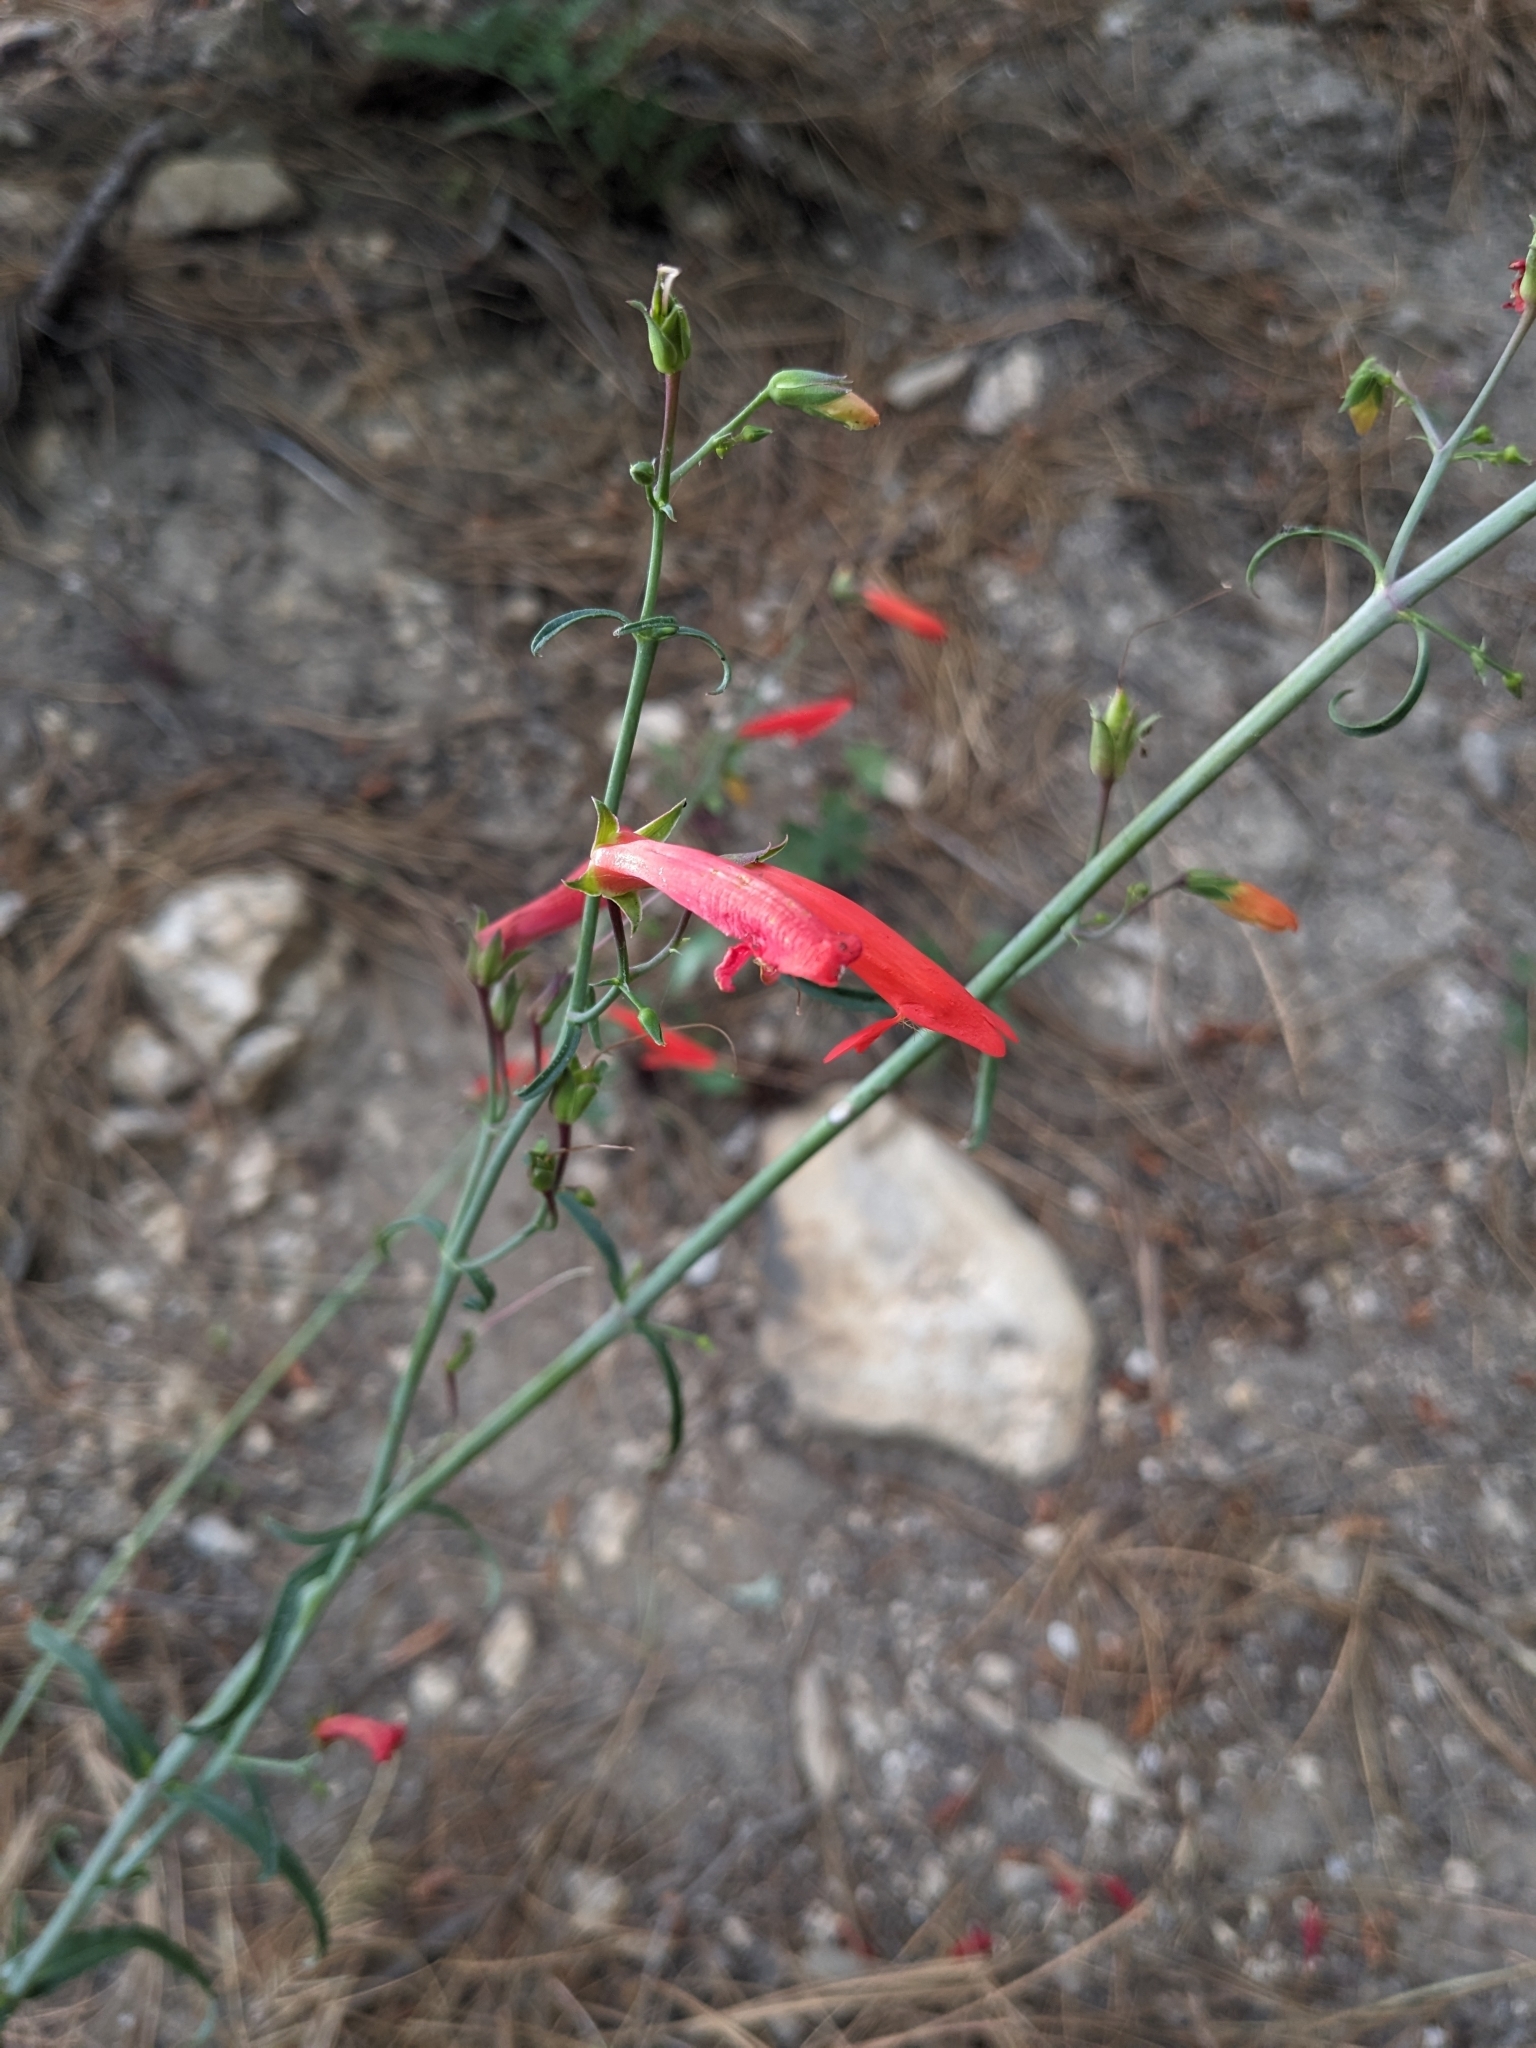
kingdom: Plantae
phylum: Tracheophyta
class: Magnoliopsida
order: Lamiales
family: Plantaginaceae
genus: Penstemon
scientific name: Penstemon barbatus
